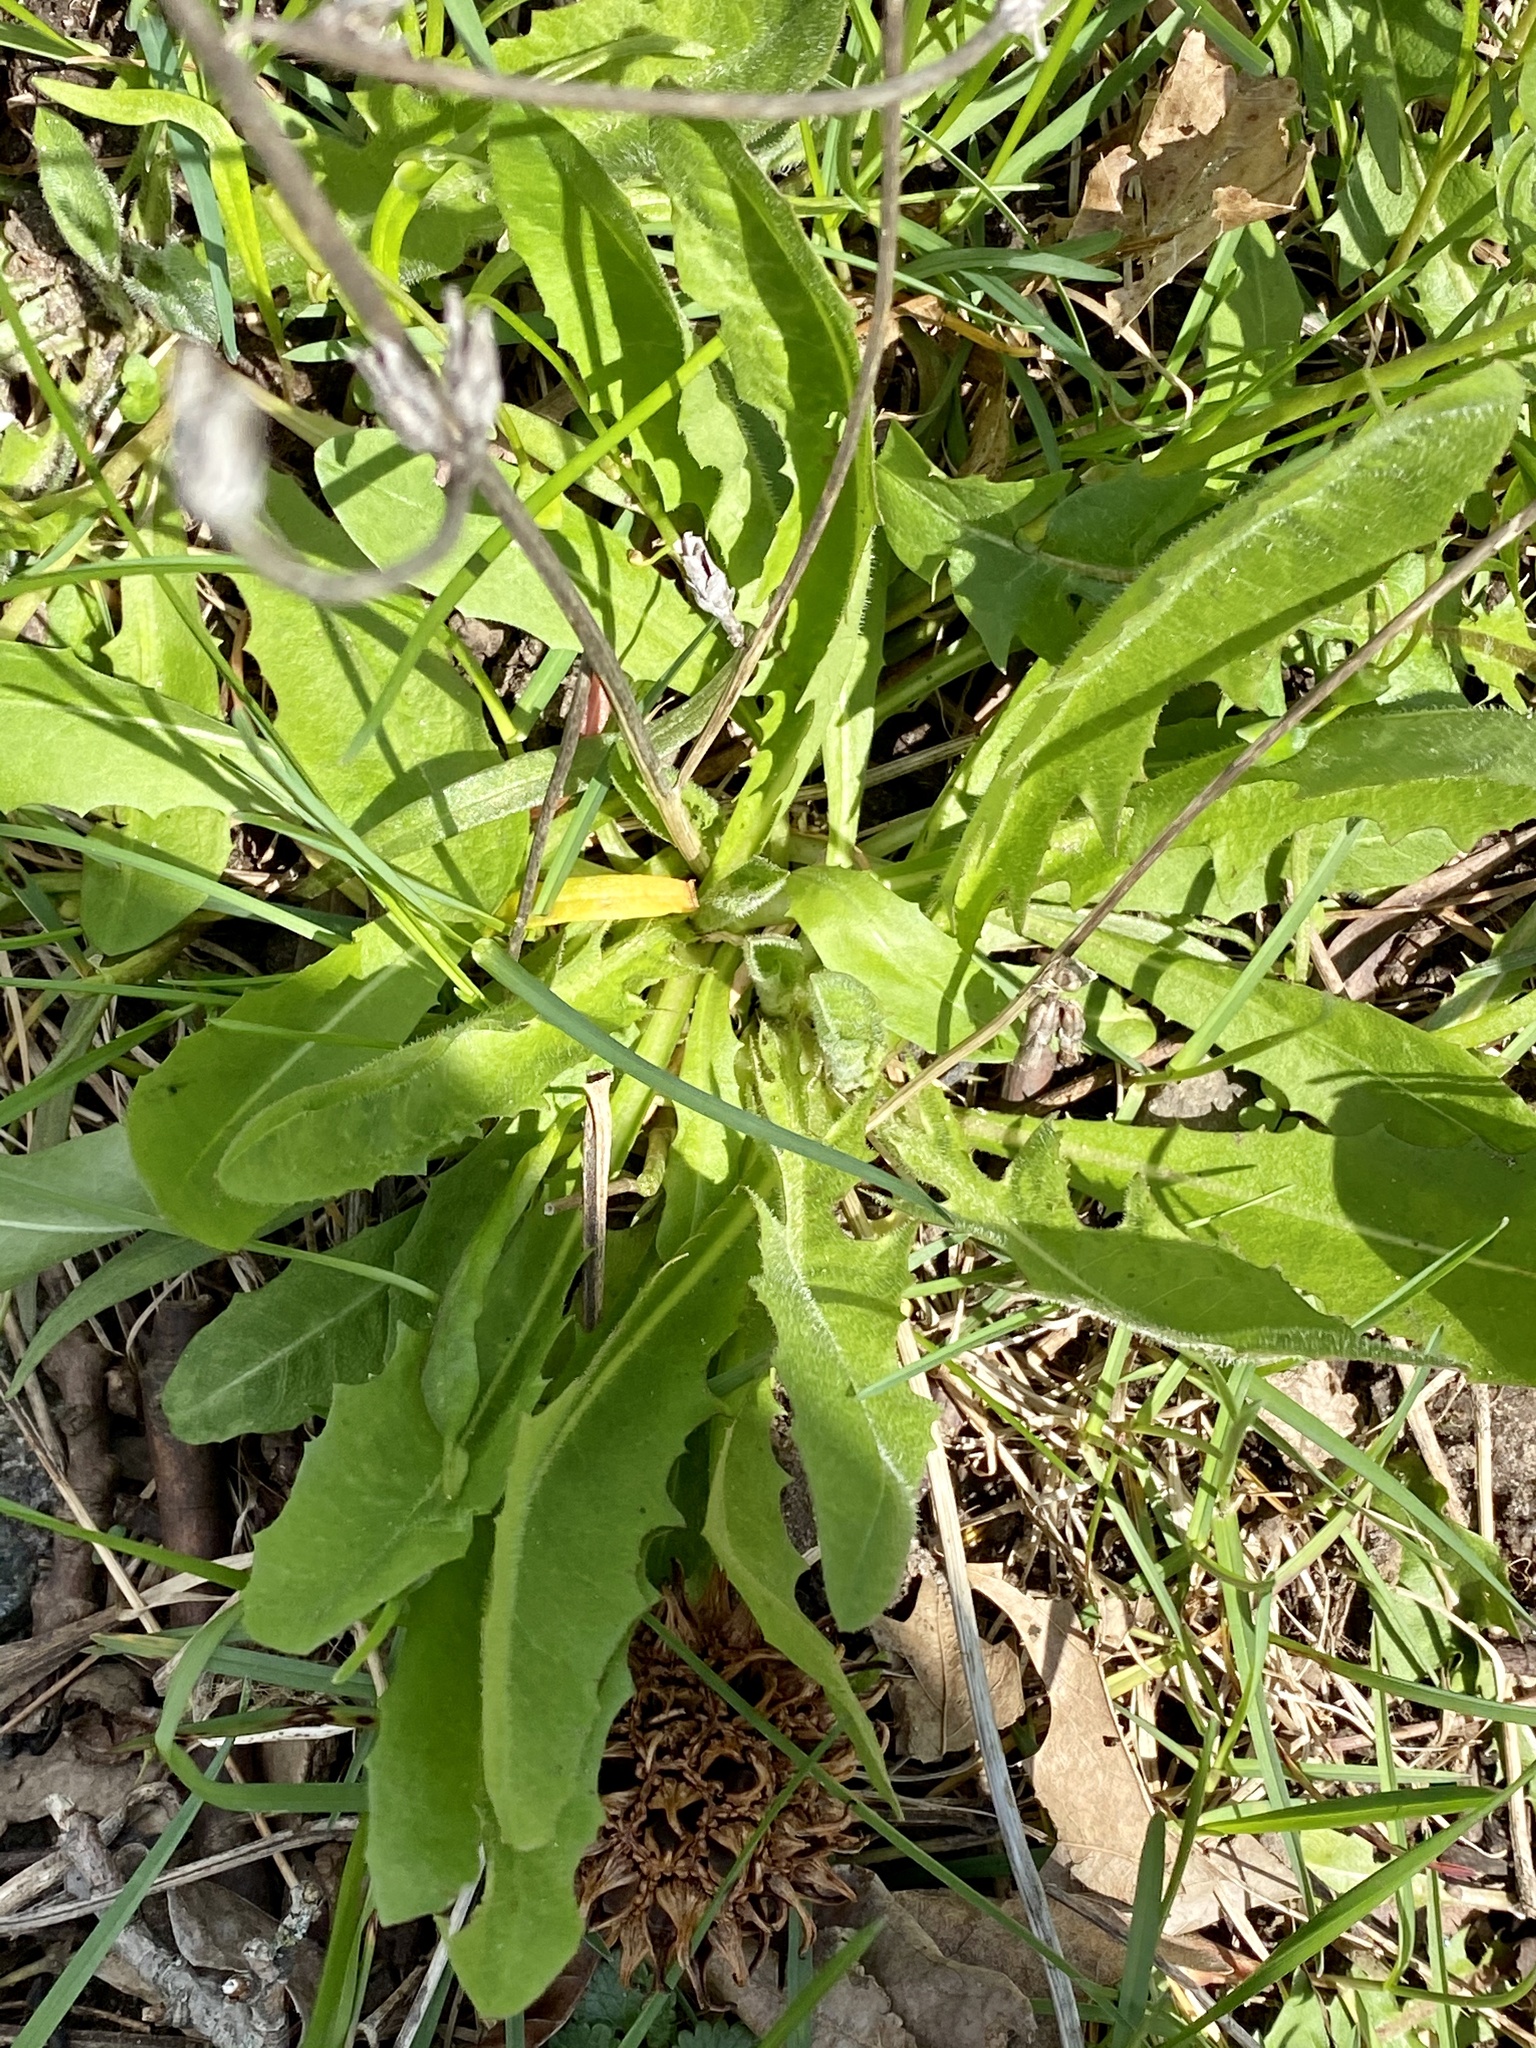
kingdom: Plantae
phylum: Tracheophyta
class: Magnoliopsida
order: Asterales
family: Asteraceae
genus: Cichorium
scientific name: Cichorium intybus
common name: Chicory
